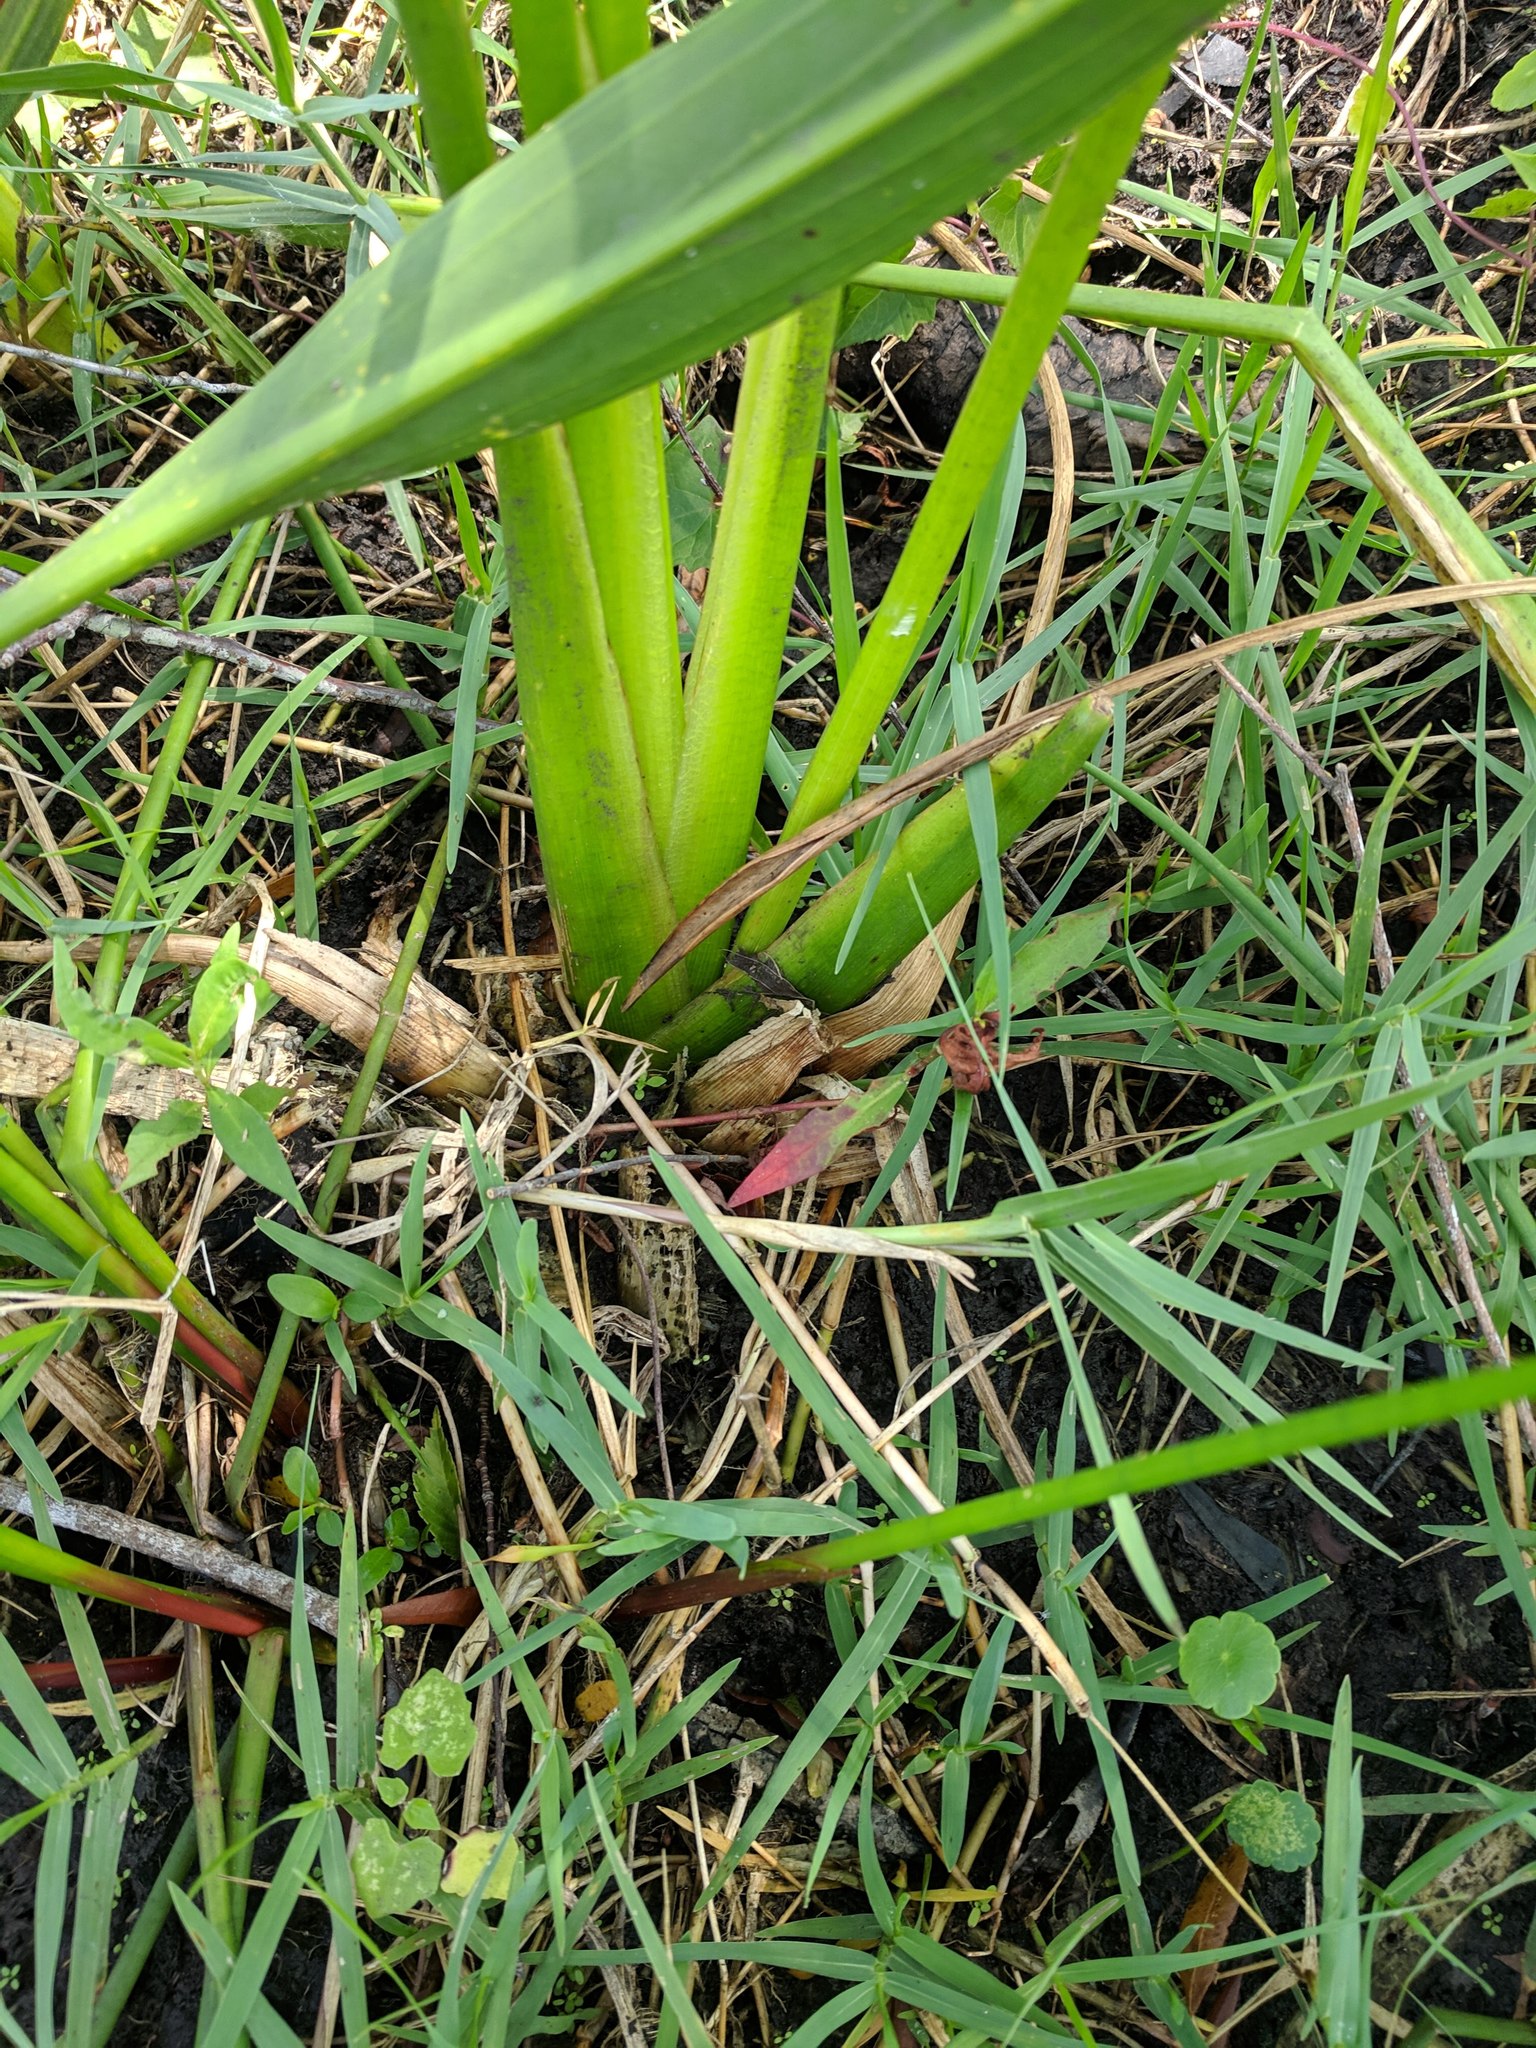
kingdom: Plantae
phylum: Tracheophyta
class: Liliopsida
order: Alismatales
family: Alismataceae
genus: Sagittaria
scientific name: Sagittaria lancifolia
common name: Lance-leaf arrowhead
